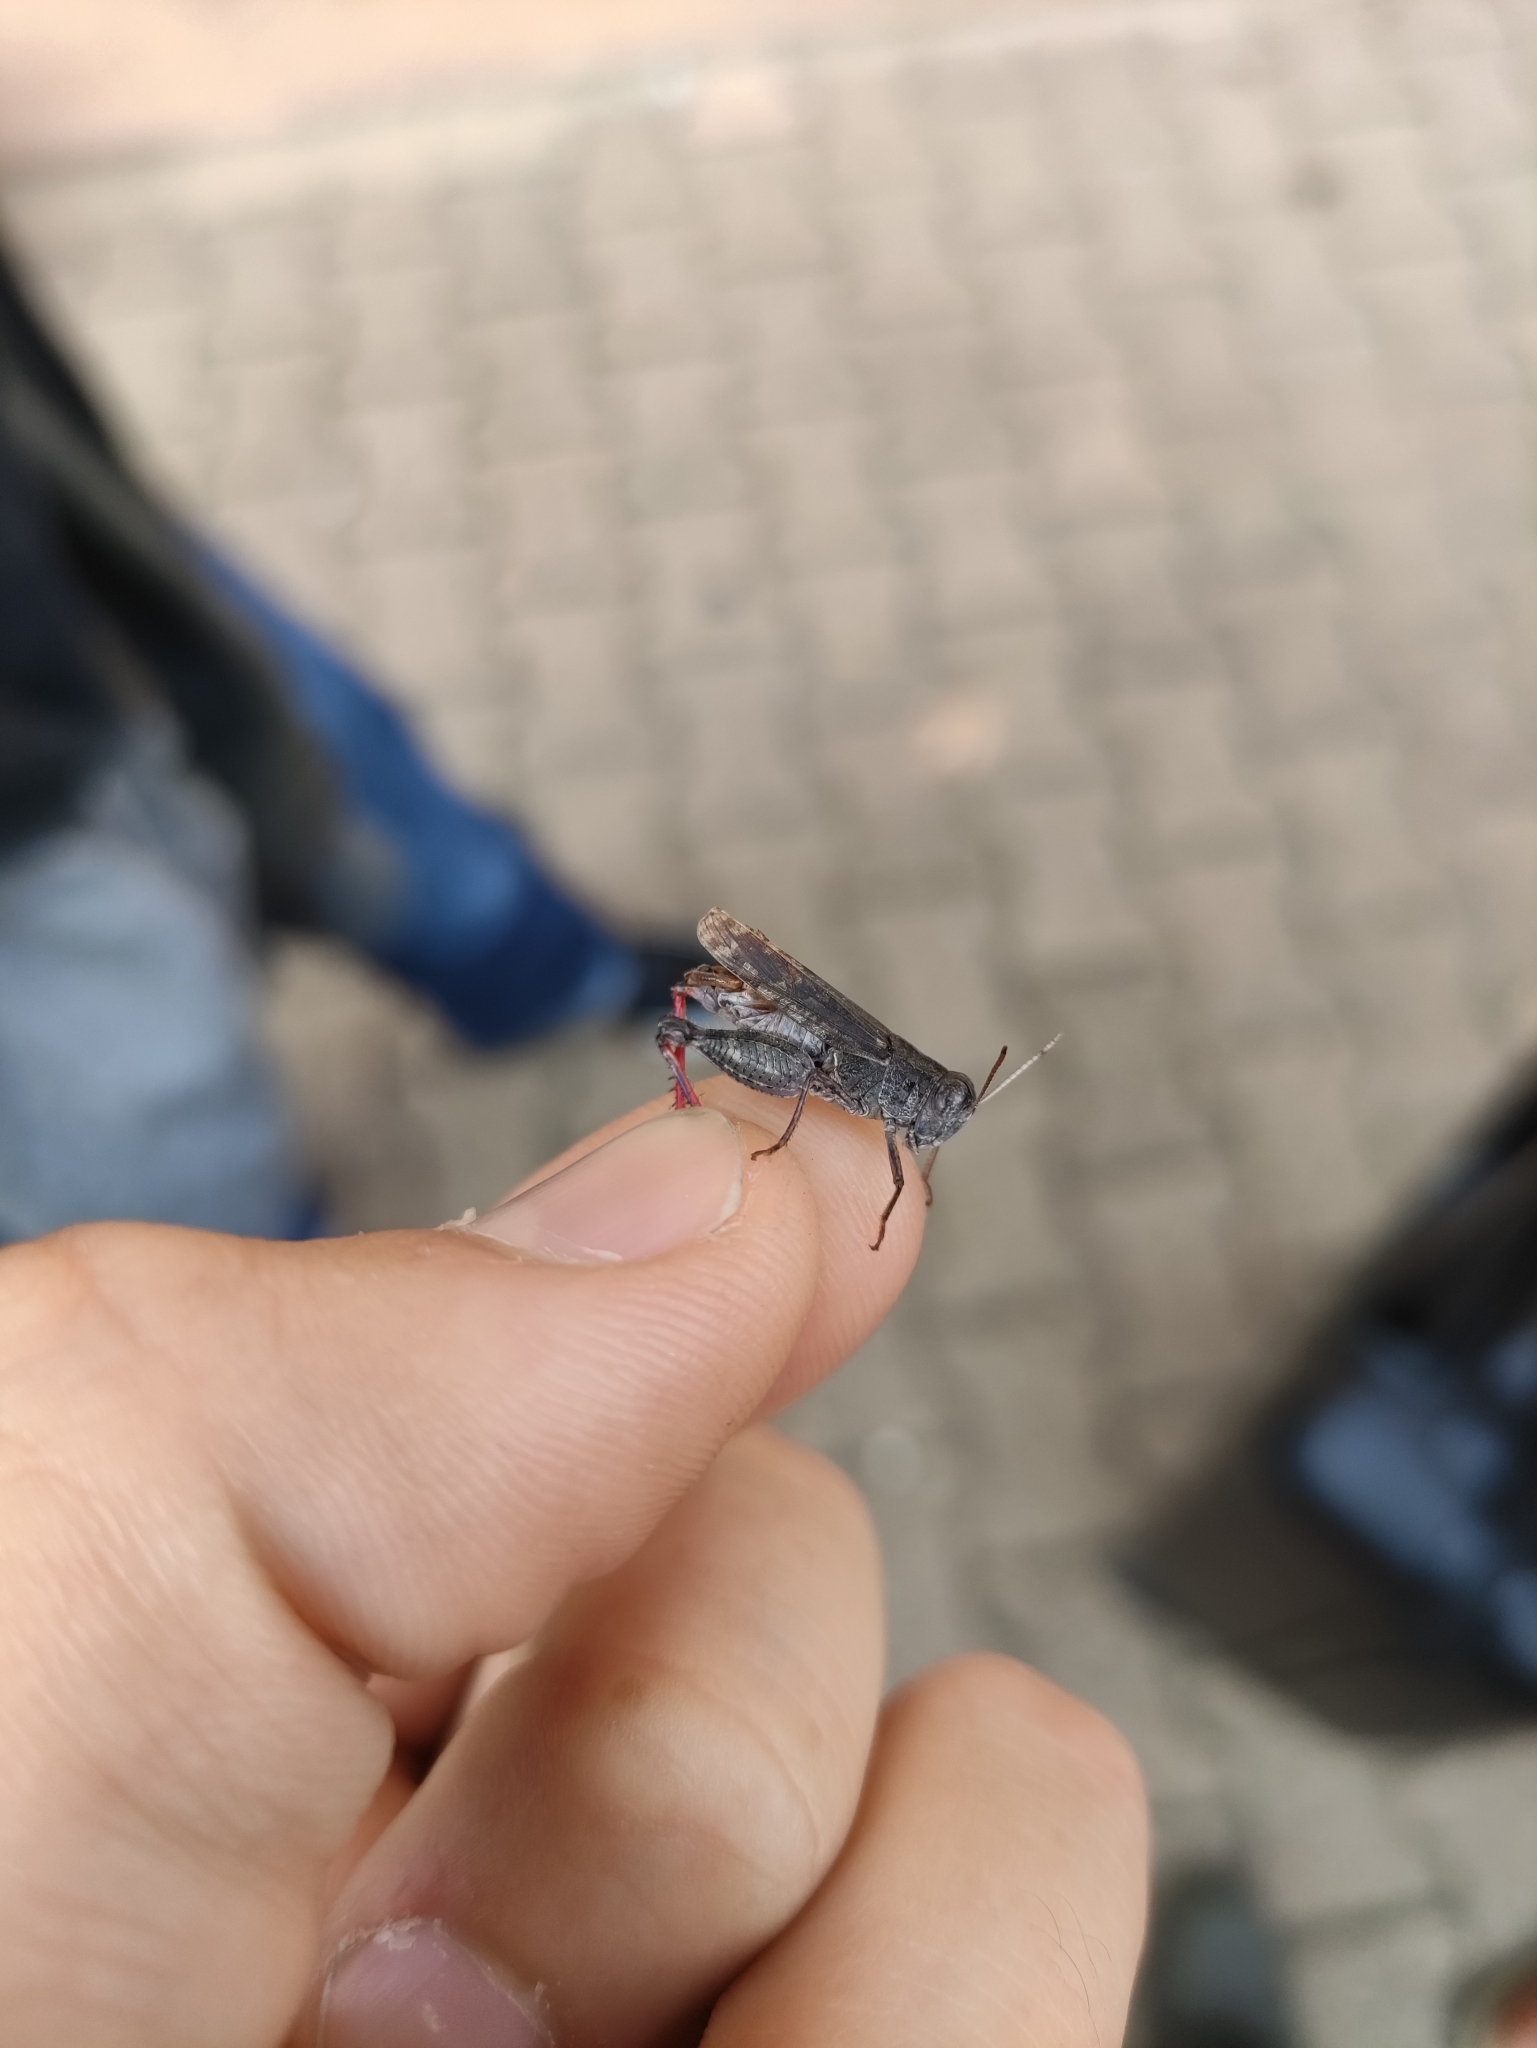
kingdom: Animalia
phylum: Arthropoda
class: Insecta
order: Orthoptera
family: Acrididae
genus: Calliptamus
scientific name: Calliptamus barbarus
